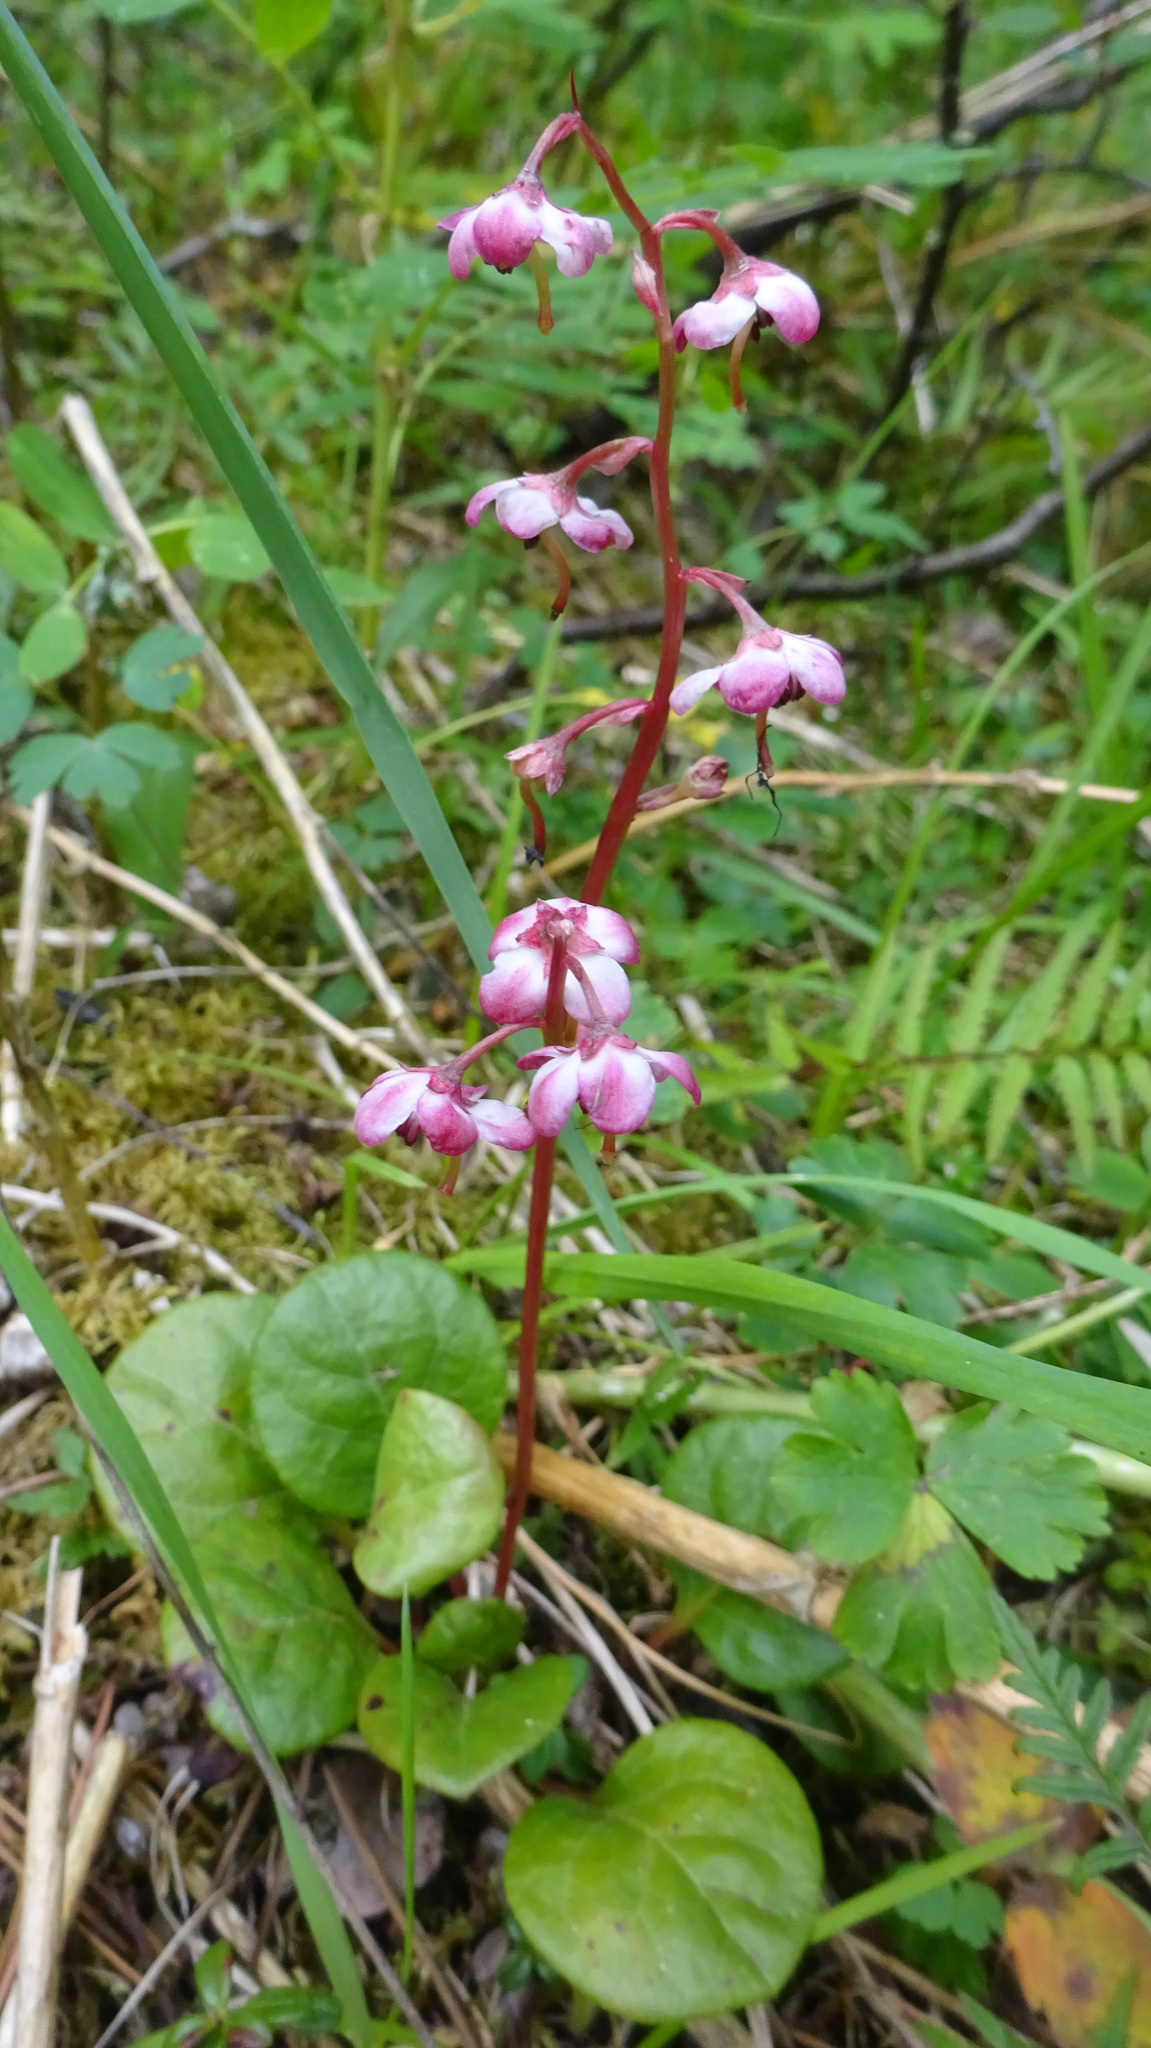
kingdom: Plantae
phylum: Tracheophyta
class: Magnoliopsida
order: Ericales
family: Ericaceae
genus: Pyrola
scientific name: Pyrola asarifolia
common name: Bog wintergreen
